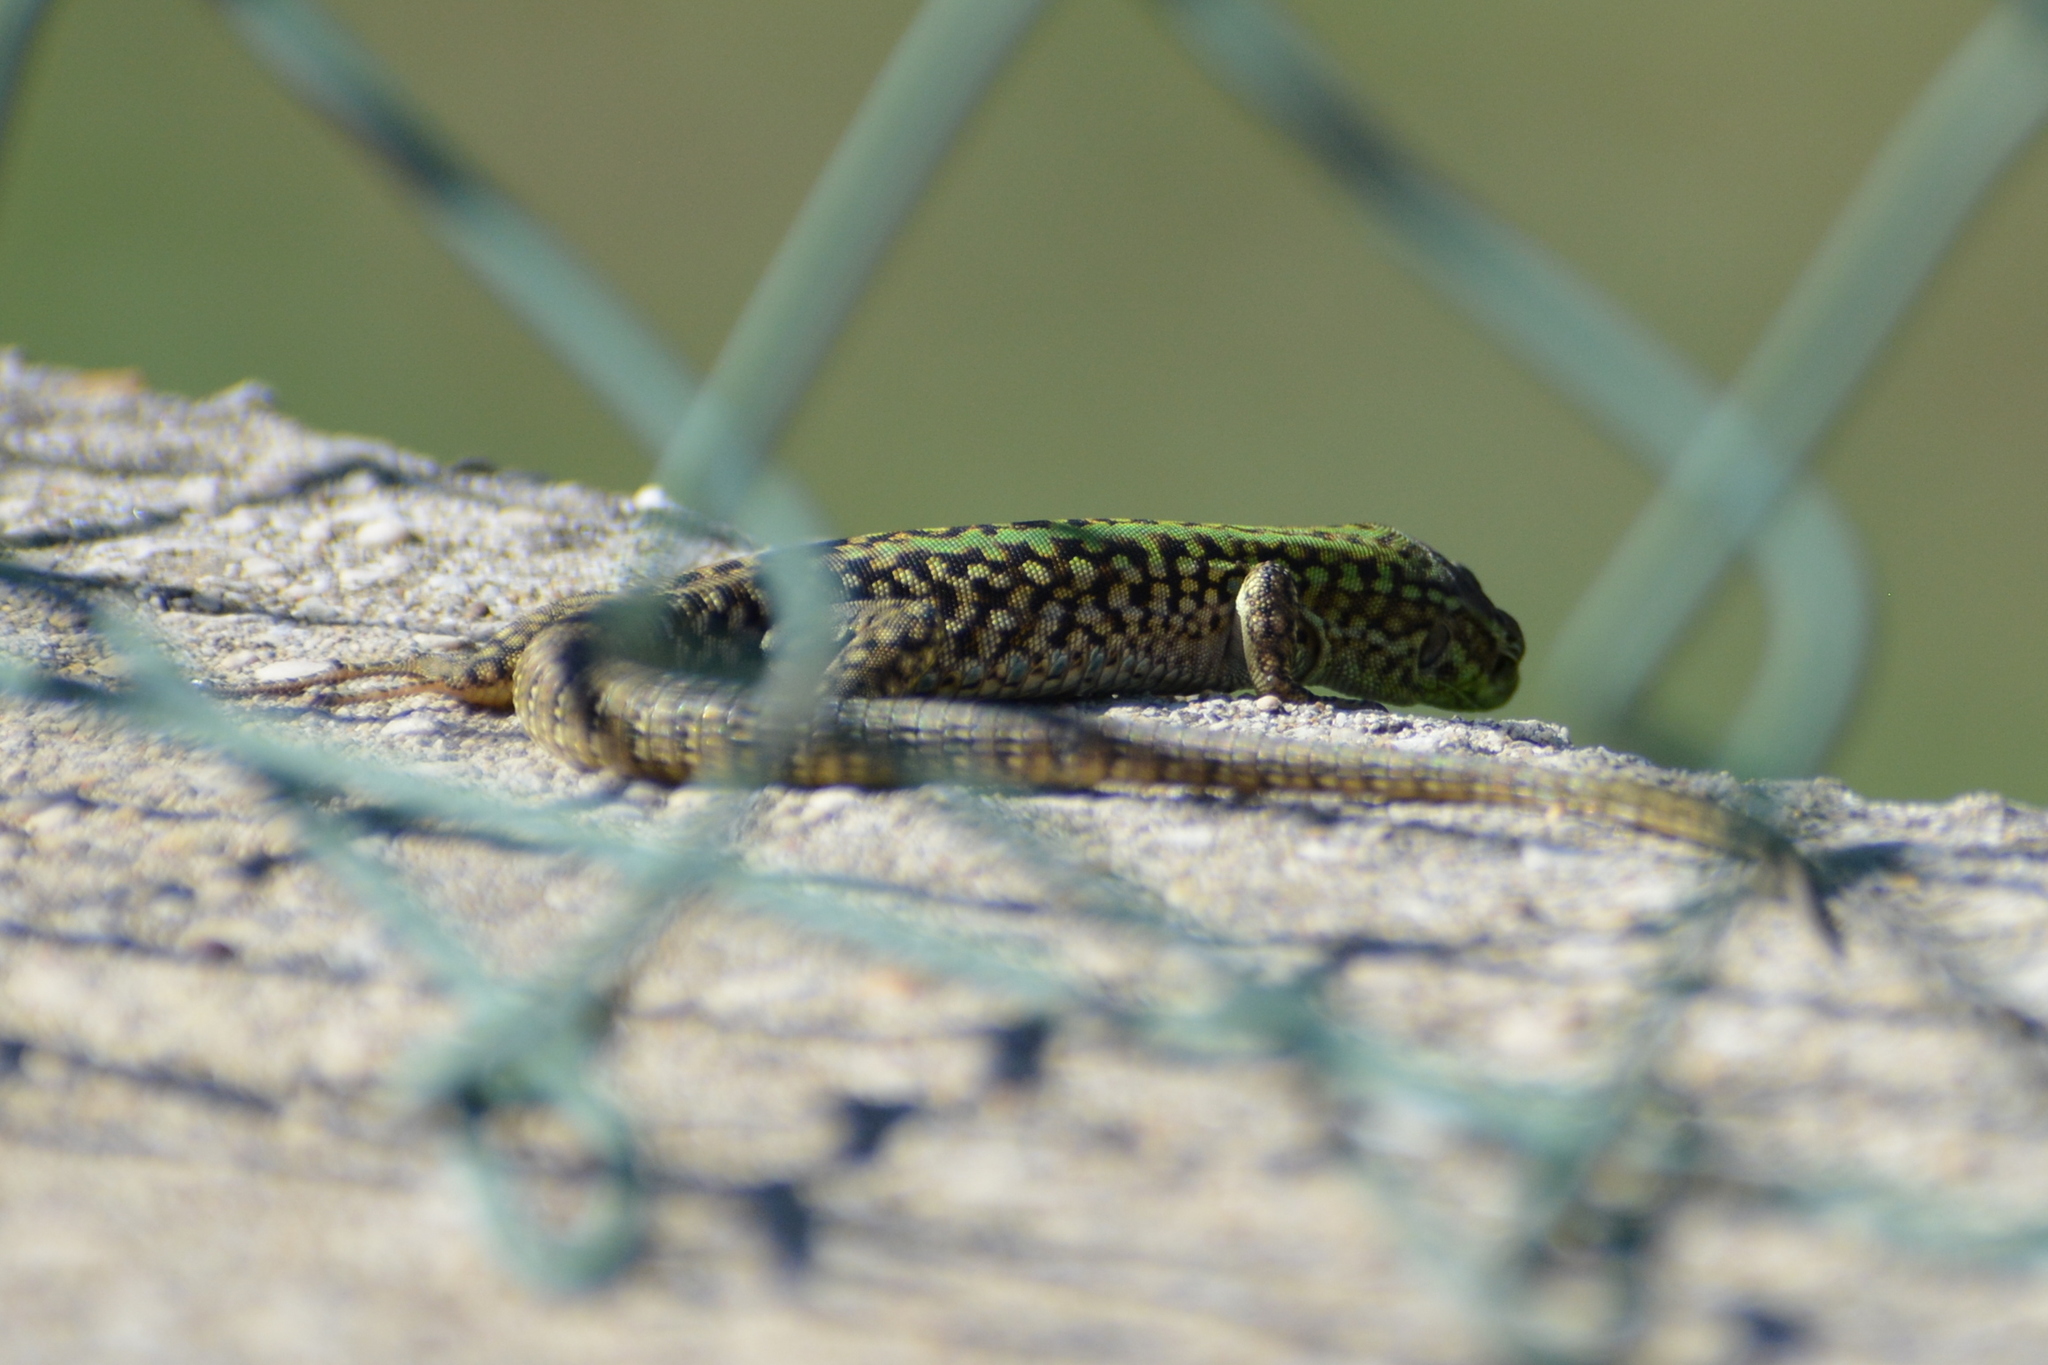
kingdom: Animalia
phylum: Chordata
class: Squamata
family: Lacertidae
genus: Podarcis
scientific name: Podarcis siculus
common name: Italian wall lizard
